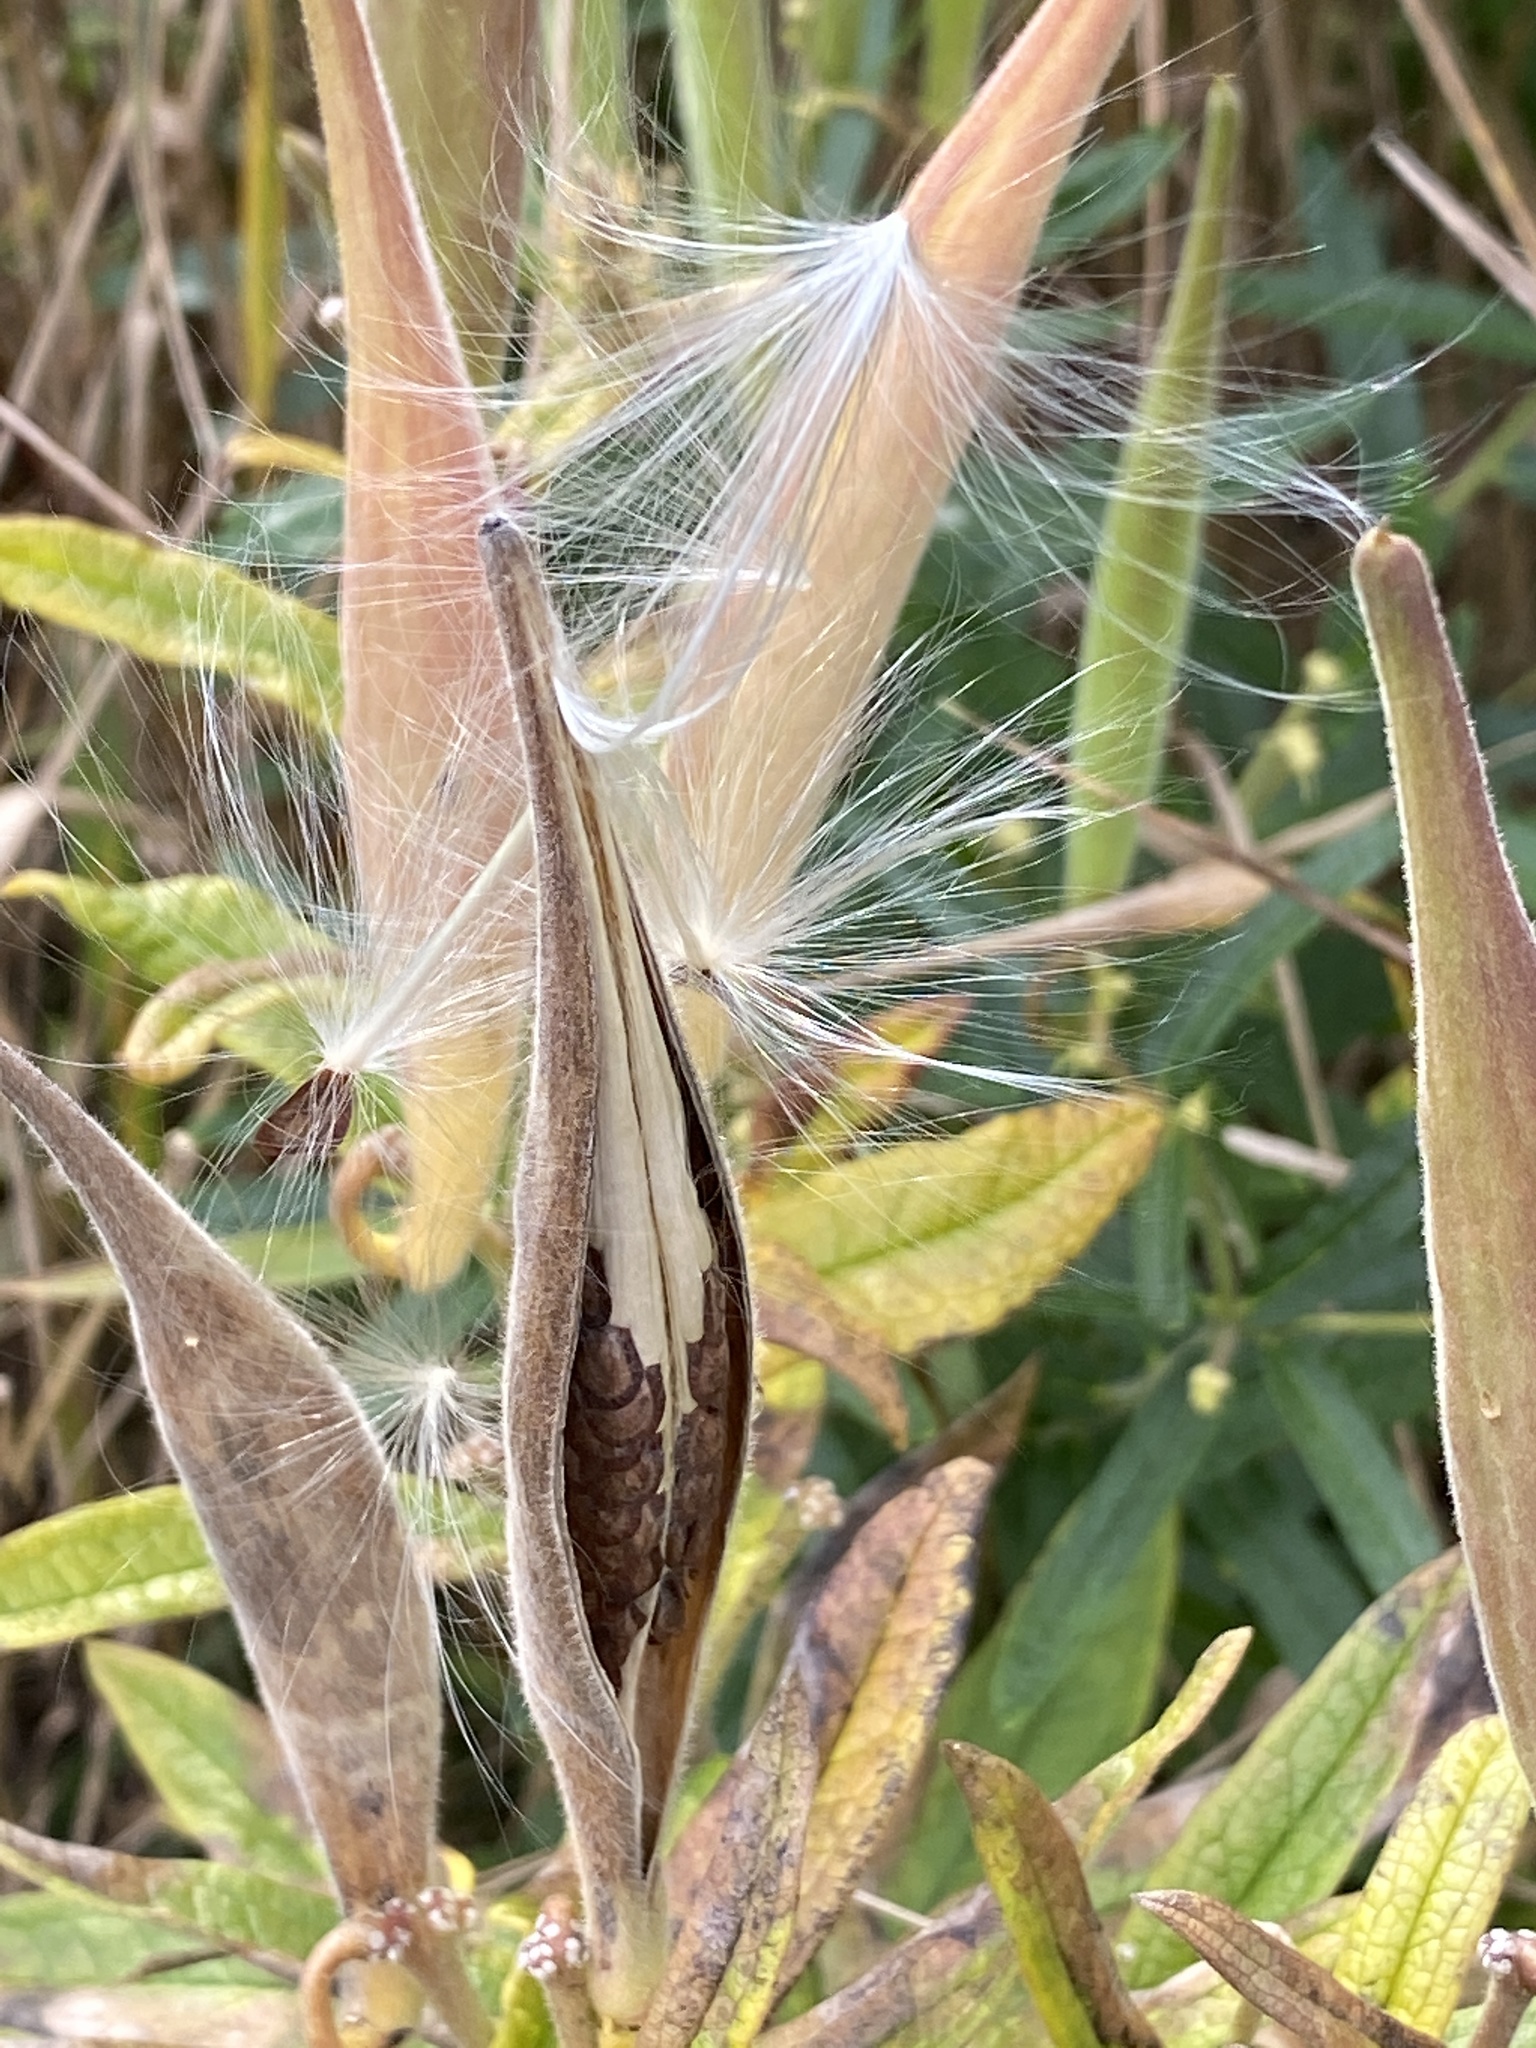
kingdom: Plantae
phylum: Tracheophyta
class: Magnoliopsida
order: Gentianales
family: Apocynaceae
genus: Asclepias
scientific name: Asclepias tuberosa
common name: Butterfly milkweed
